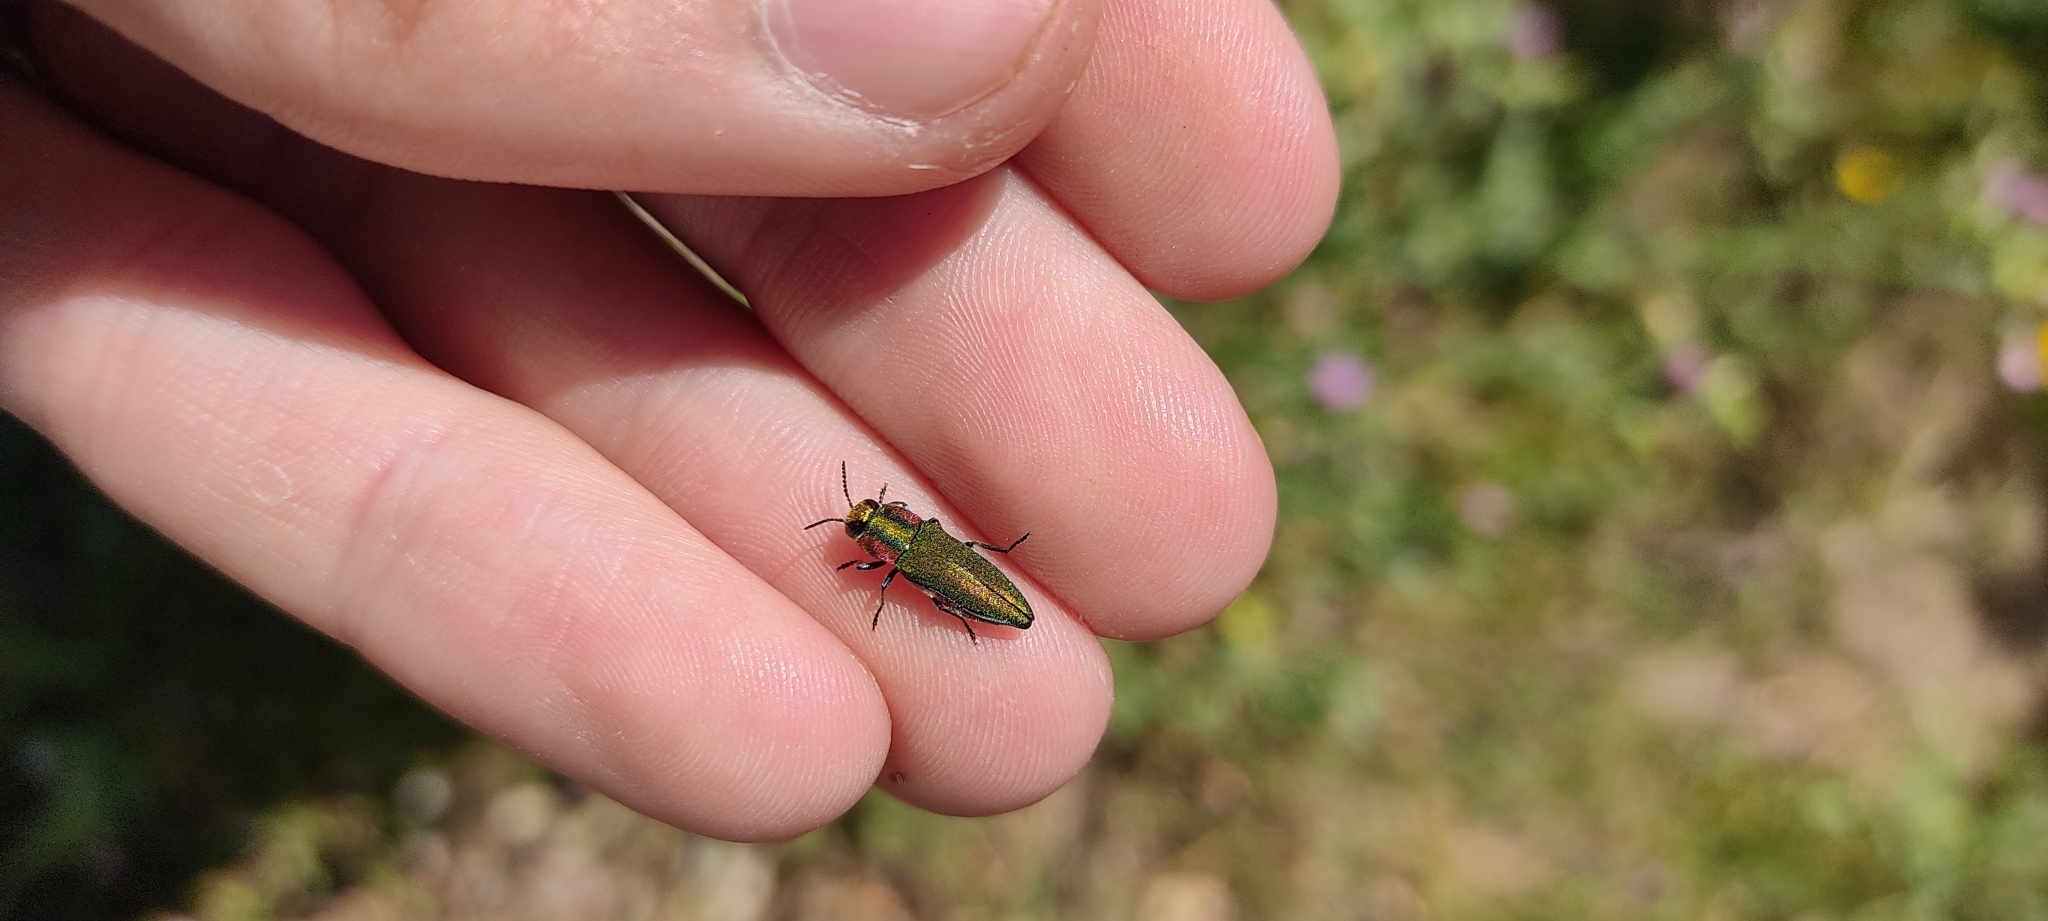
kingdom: Animalia
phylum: Arthropoda
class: Insecta
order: Coleoptera
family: Buprestidae
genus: Anthaxia
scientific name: Anthaxia hungarica
